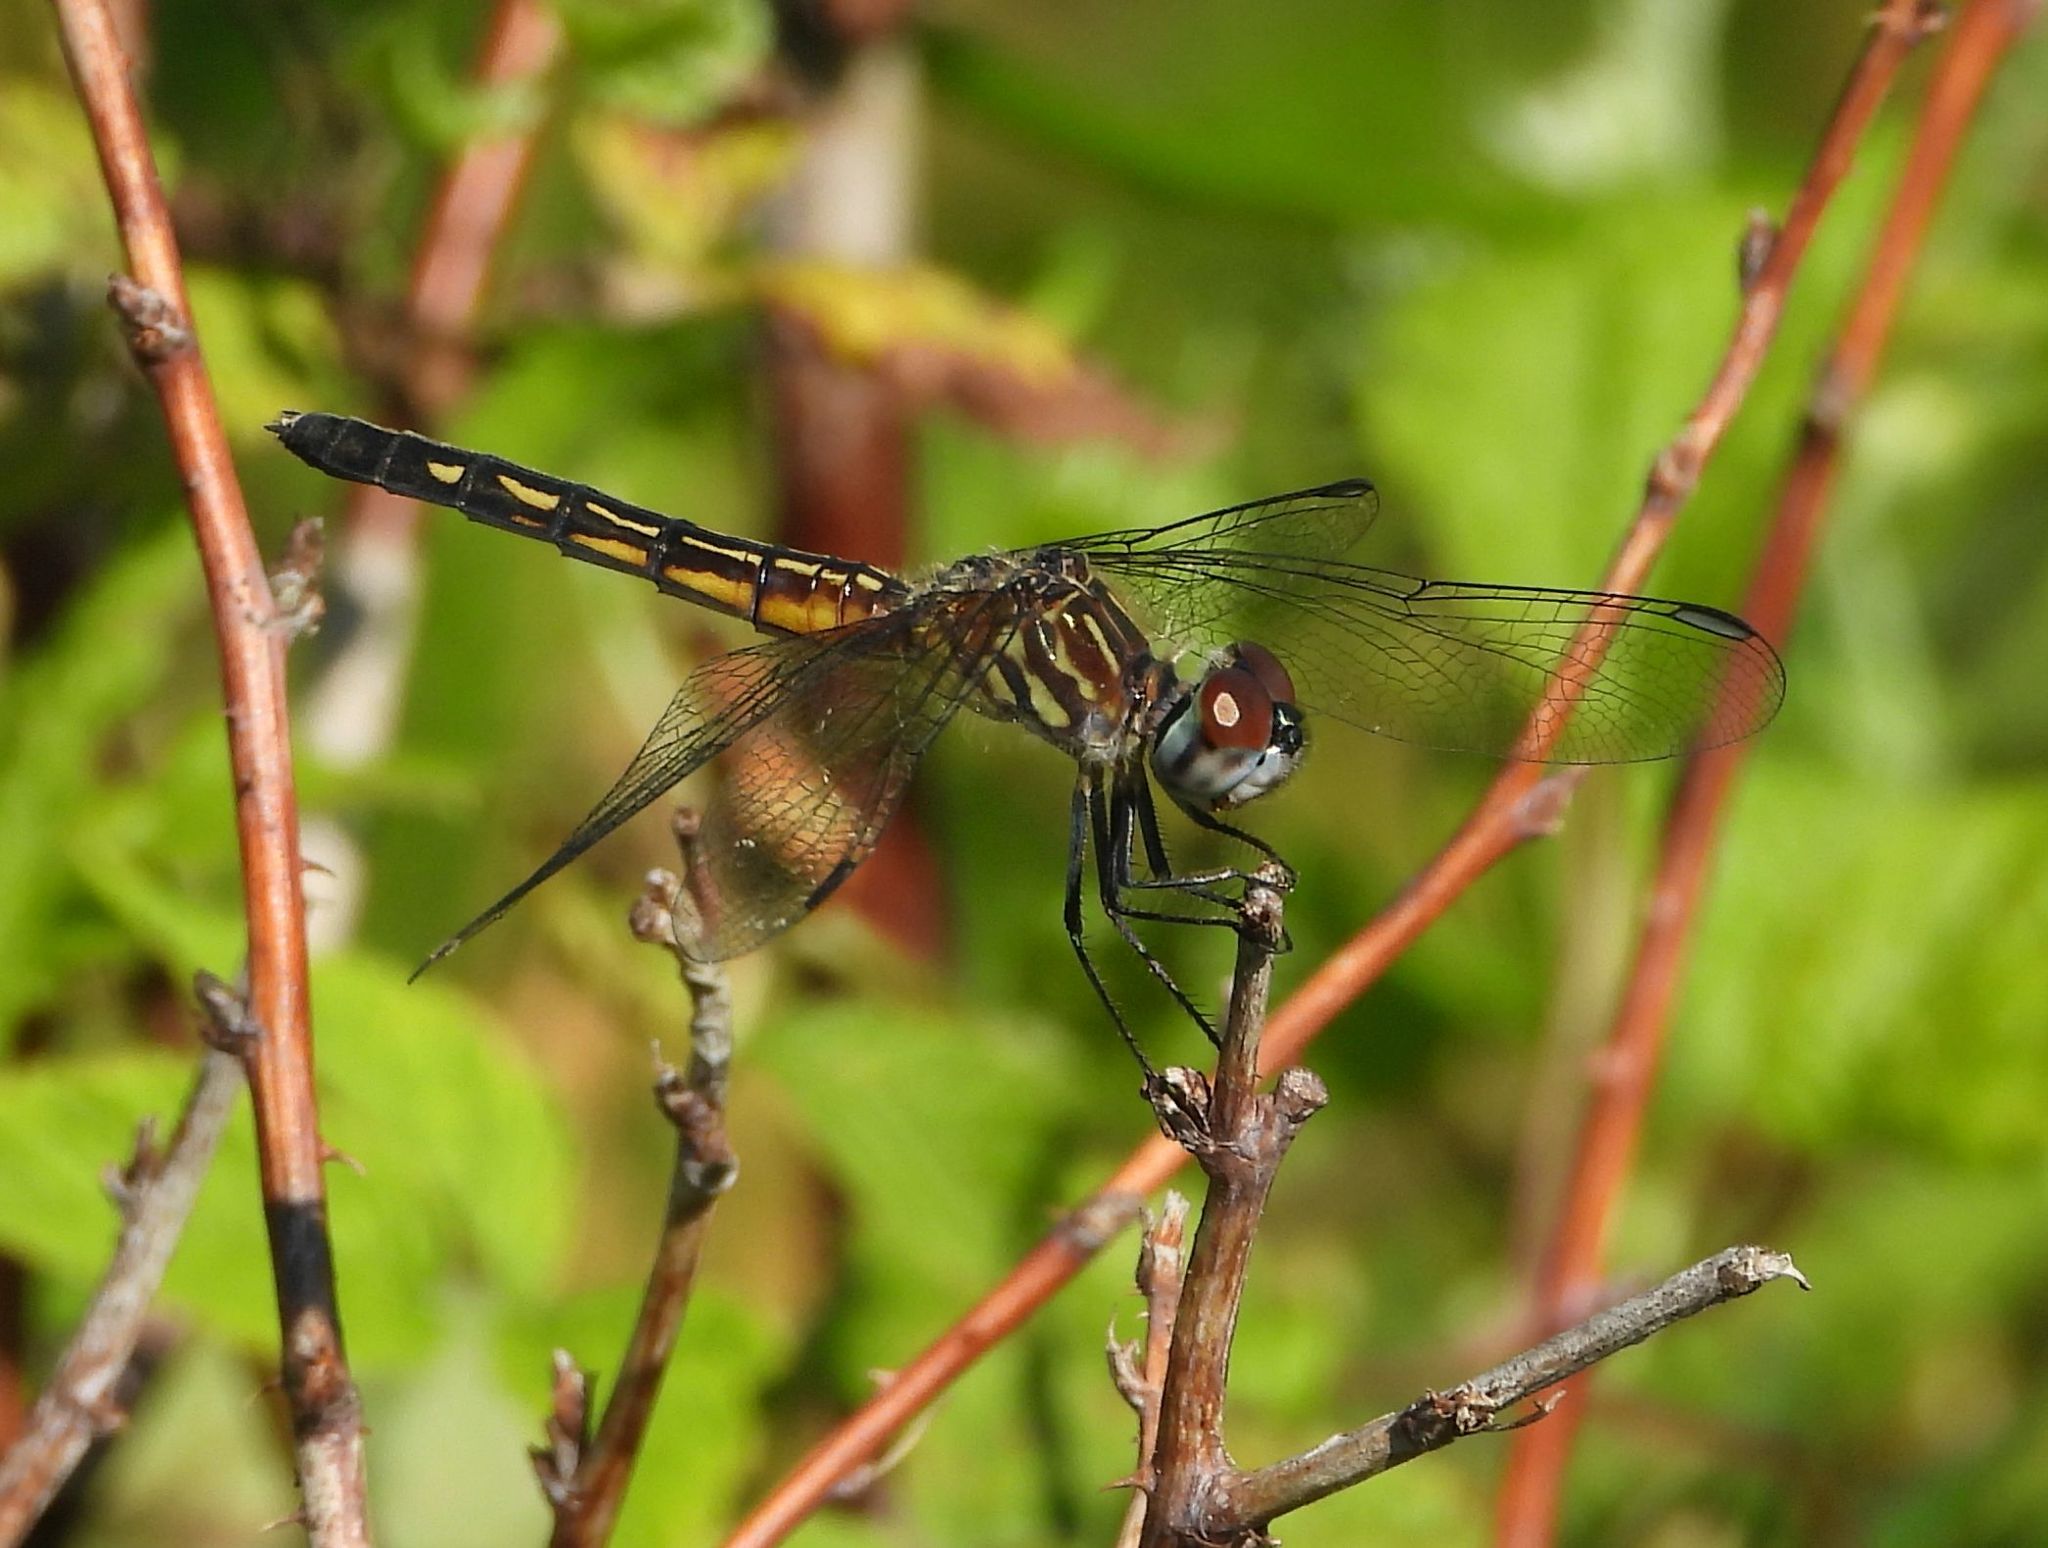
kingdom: Animalia
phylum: Arthropoda
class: Insecta
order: Odonata
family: Libellulidae
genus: Pachydiplax
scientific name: Pachydiplax longipennis
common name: Blue dasher
